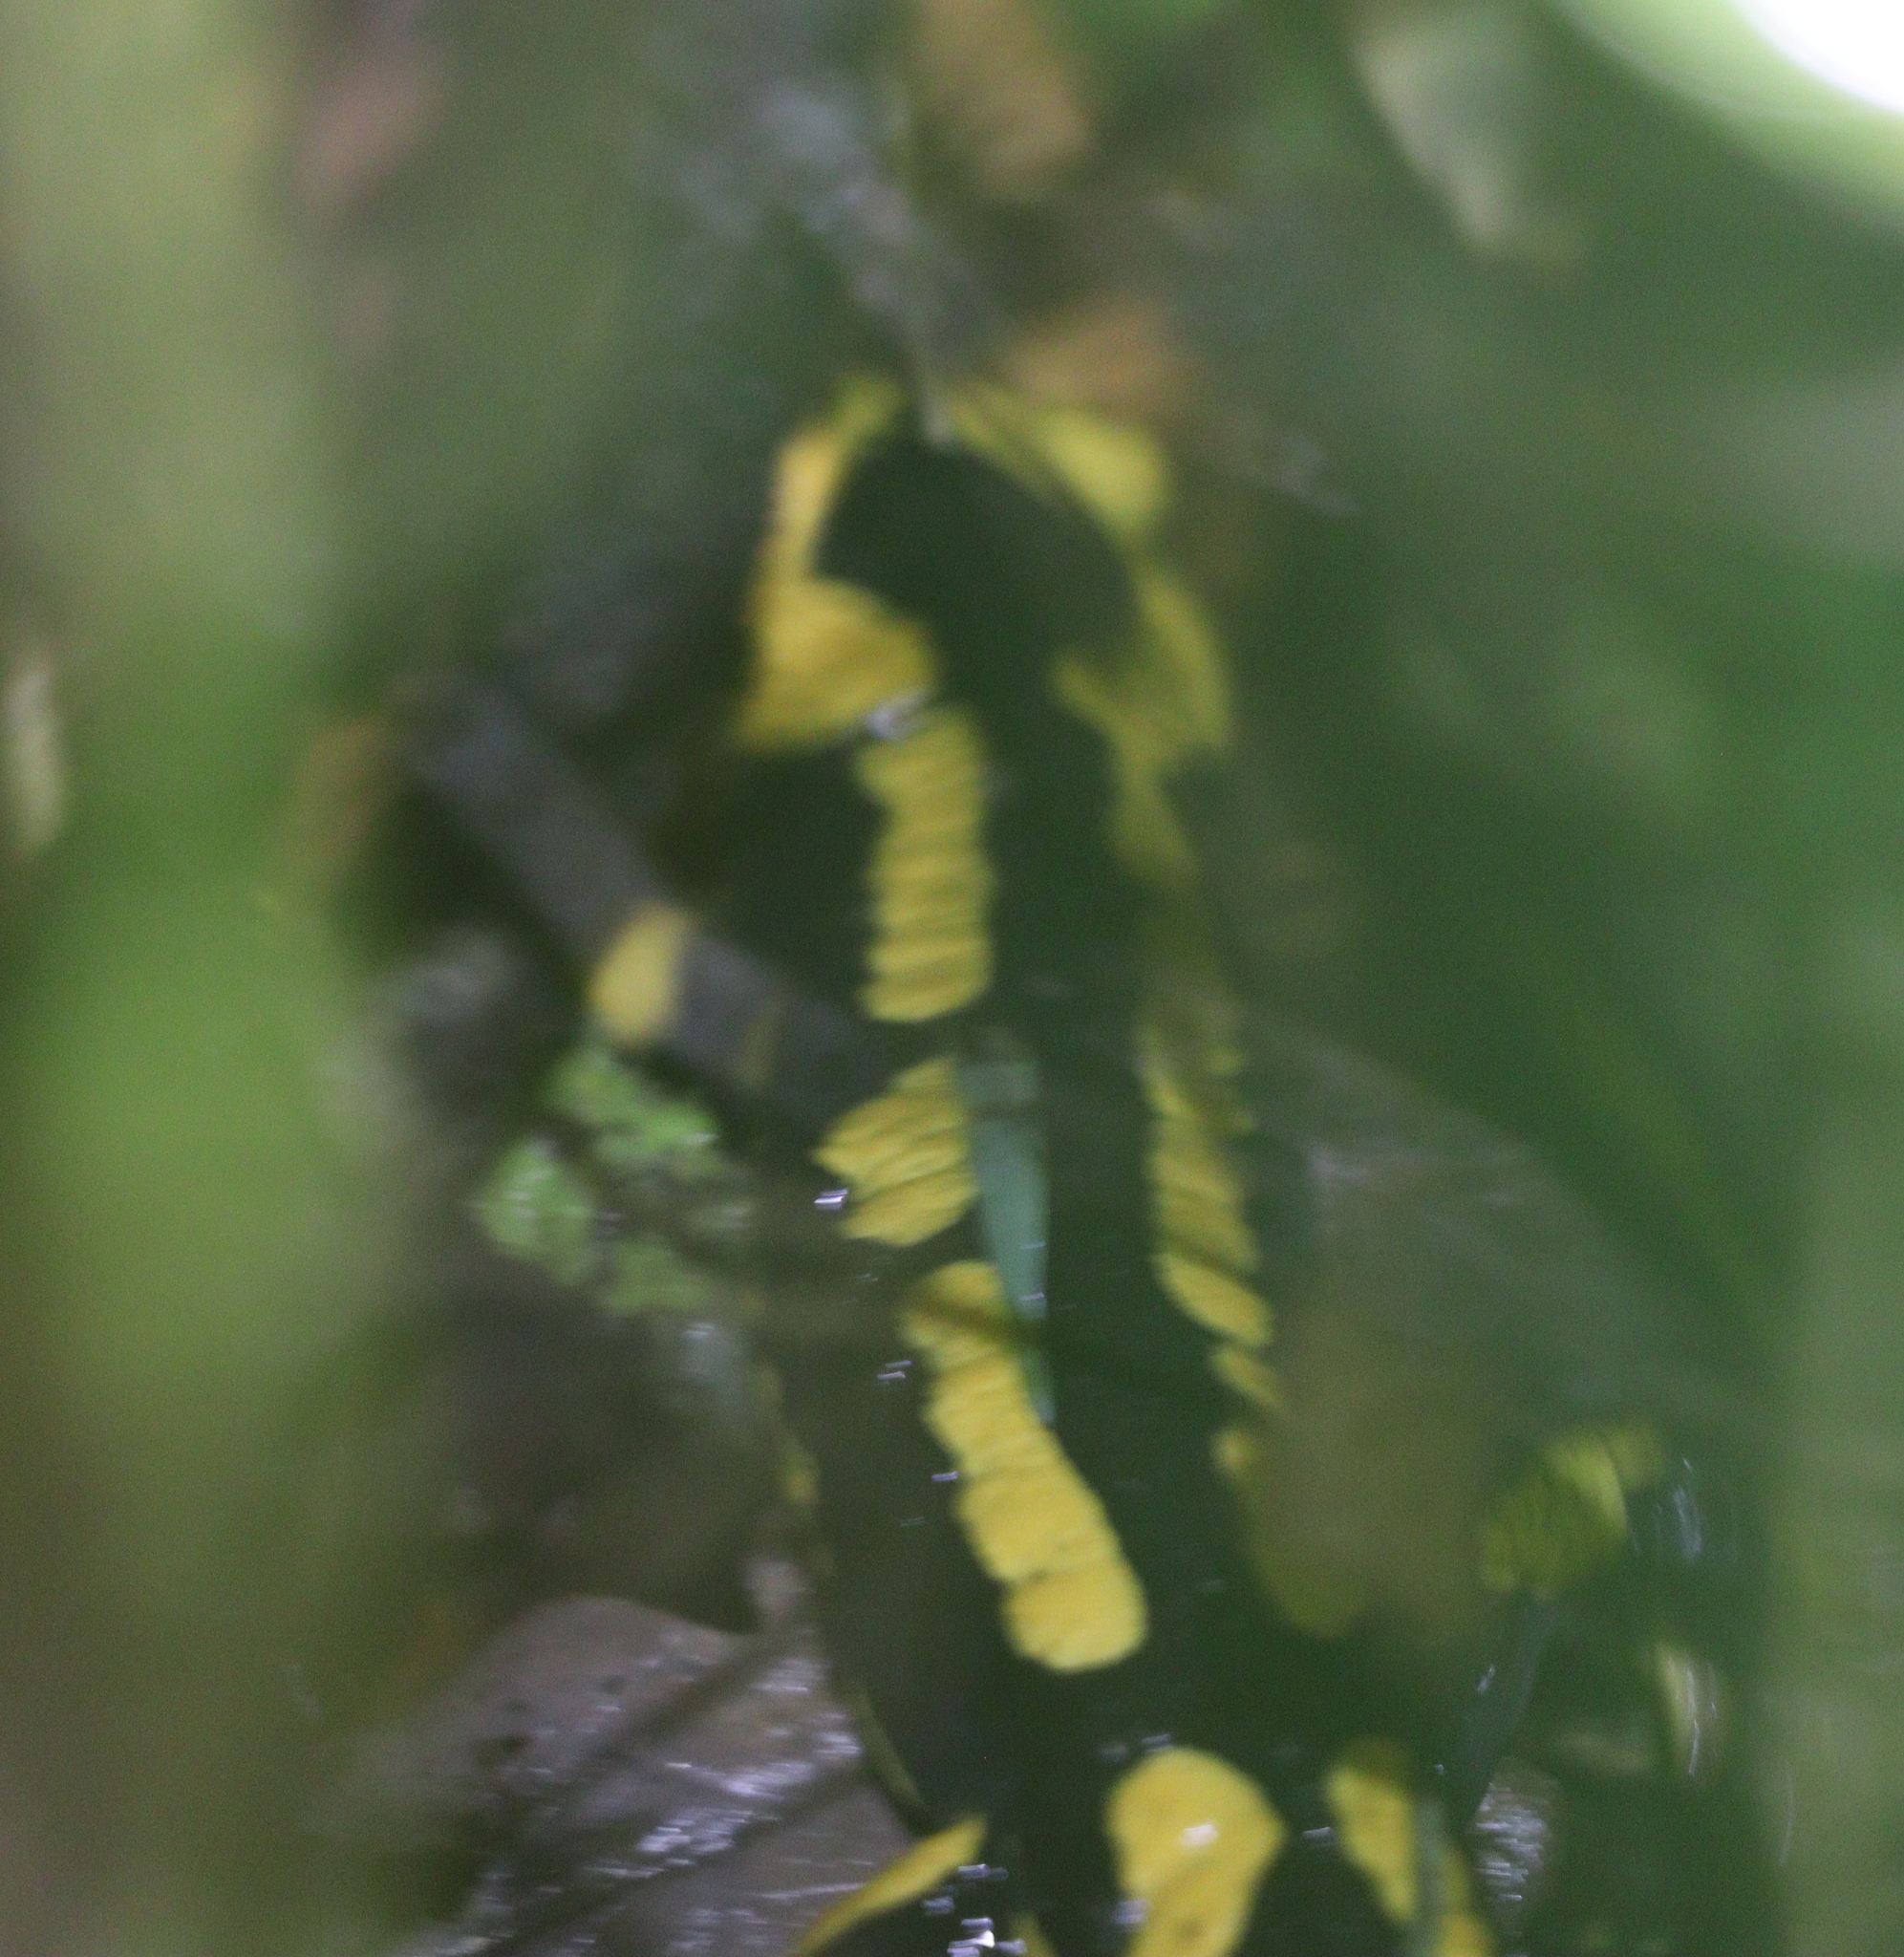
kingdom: Animalia
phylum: Chordata
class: Amphibia
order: Caudata
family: Salamandridae
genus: Salamandra
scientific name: Salamandra salamandra
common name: Fire salamander
